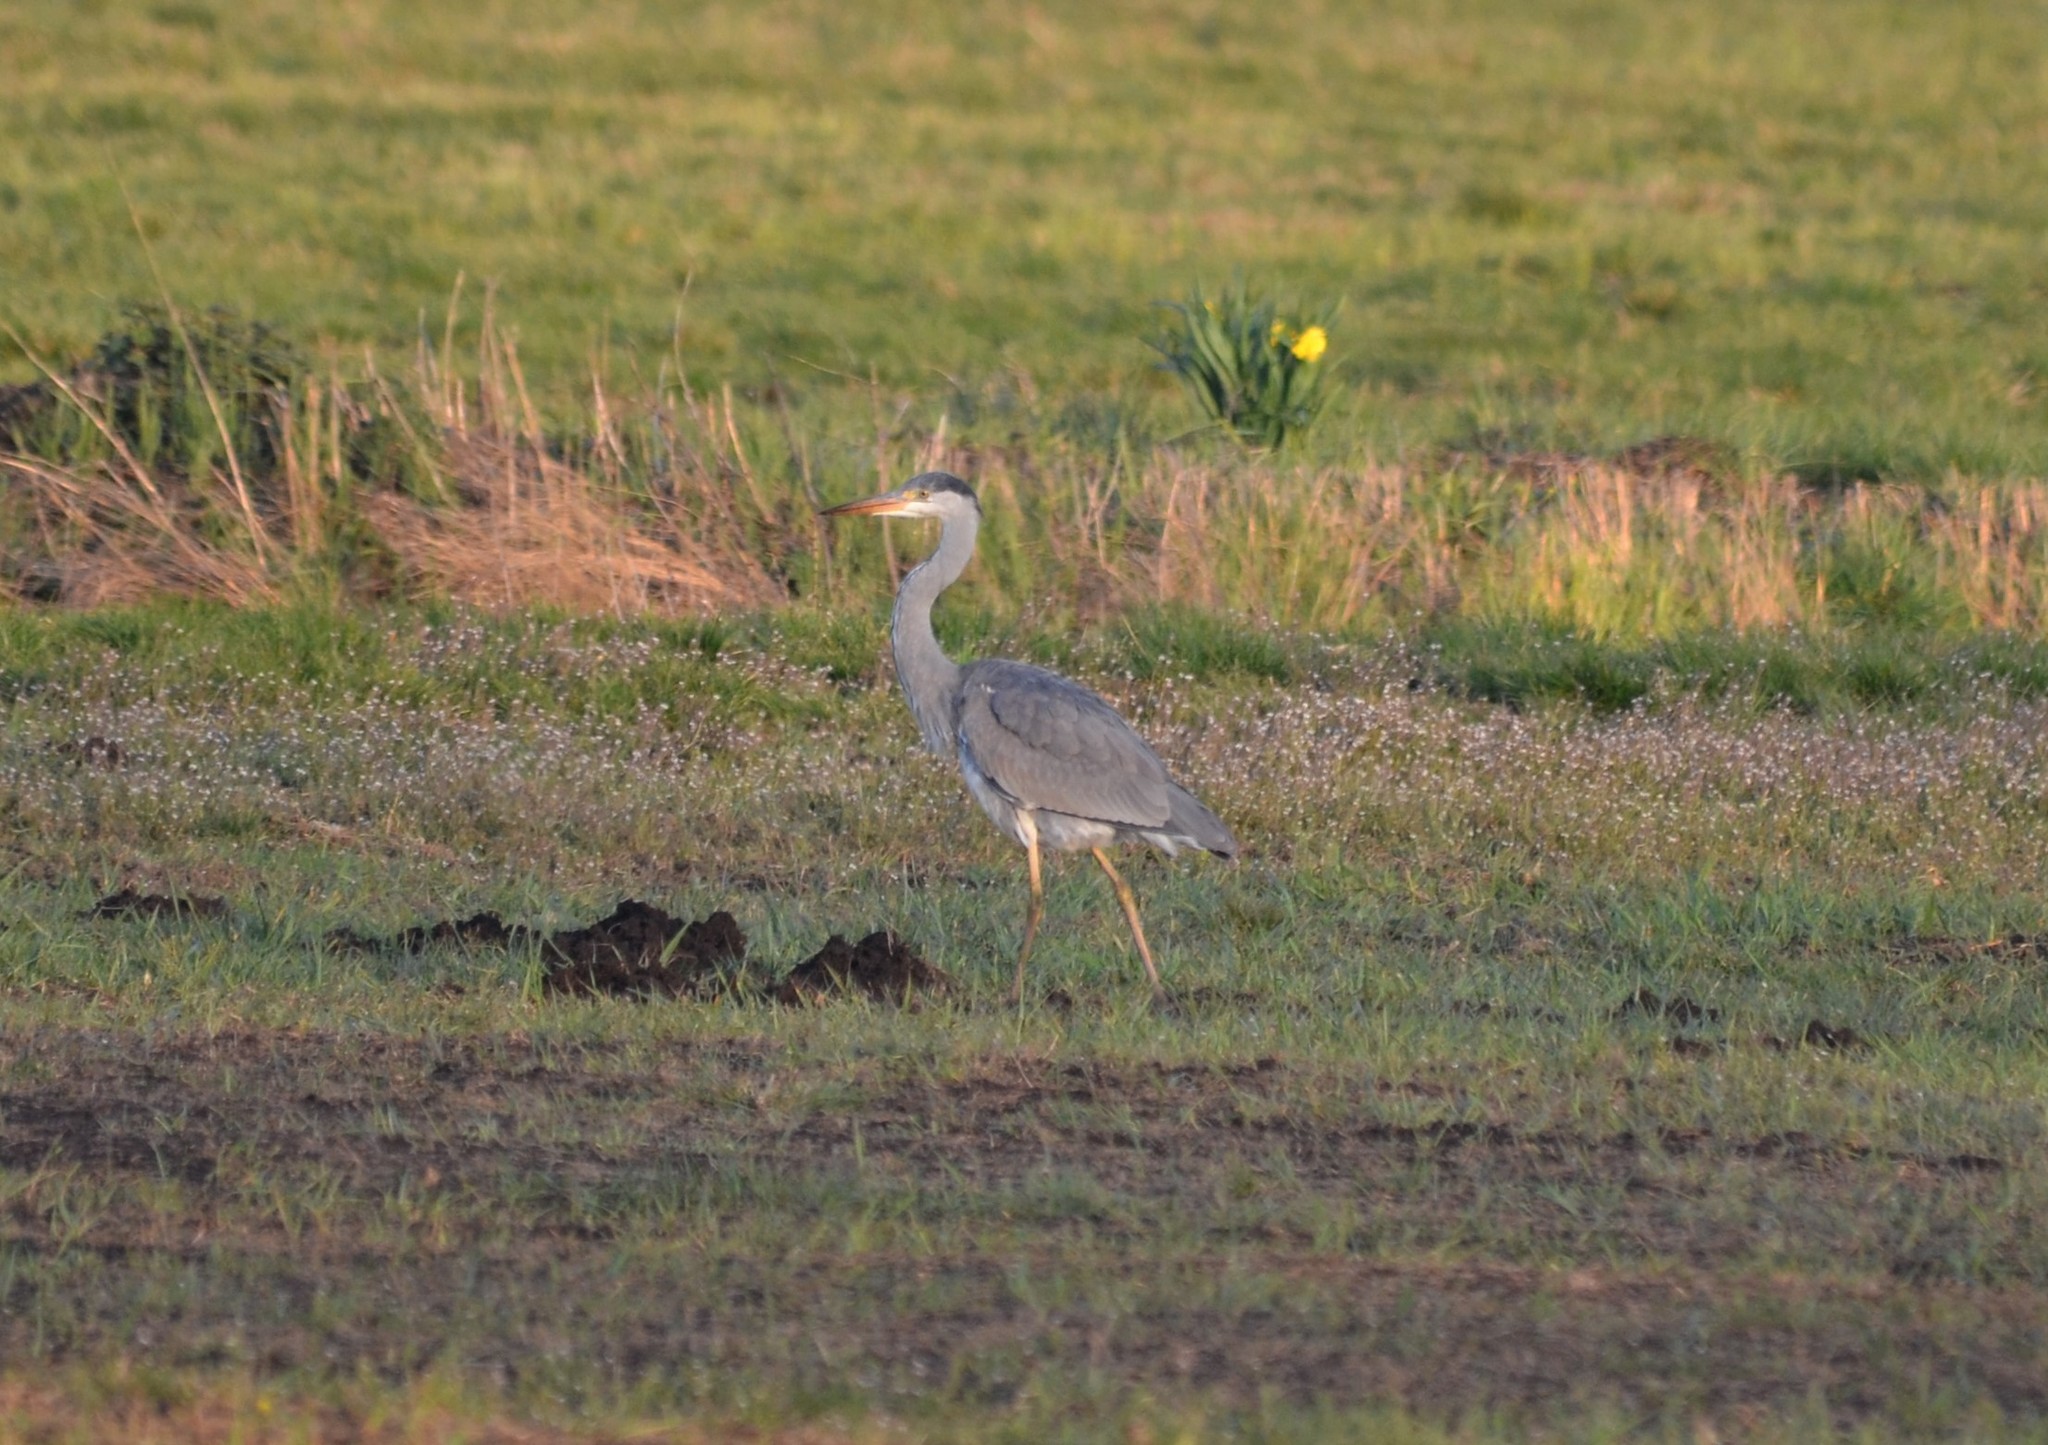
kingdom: Animalia
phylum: Chordata
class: Aves
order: Pelecaniformes
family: Ardeidae
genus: Ardea
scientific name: Ardea cinerea
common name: Grey heron
